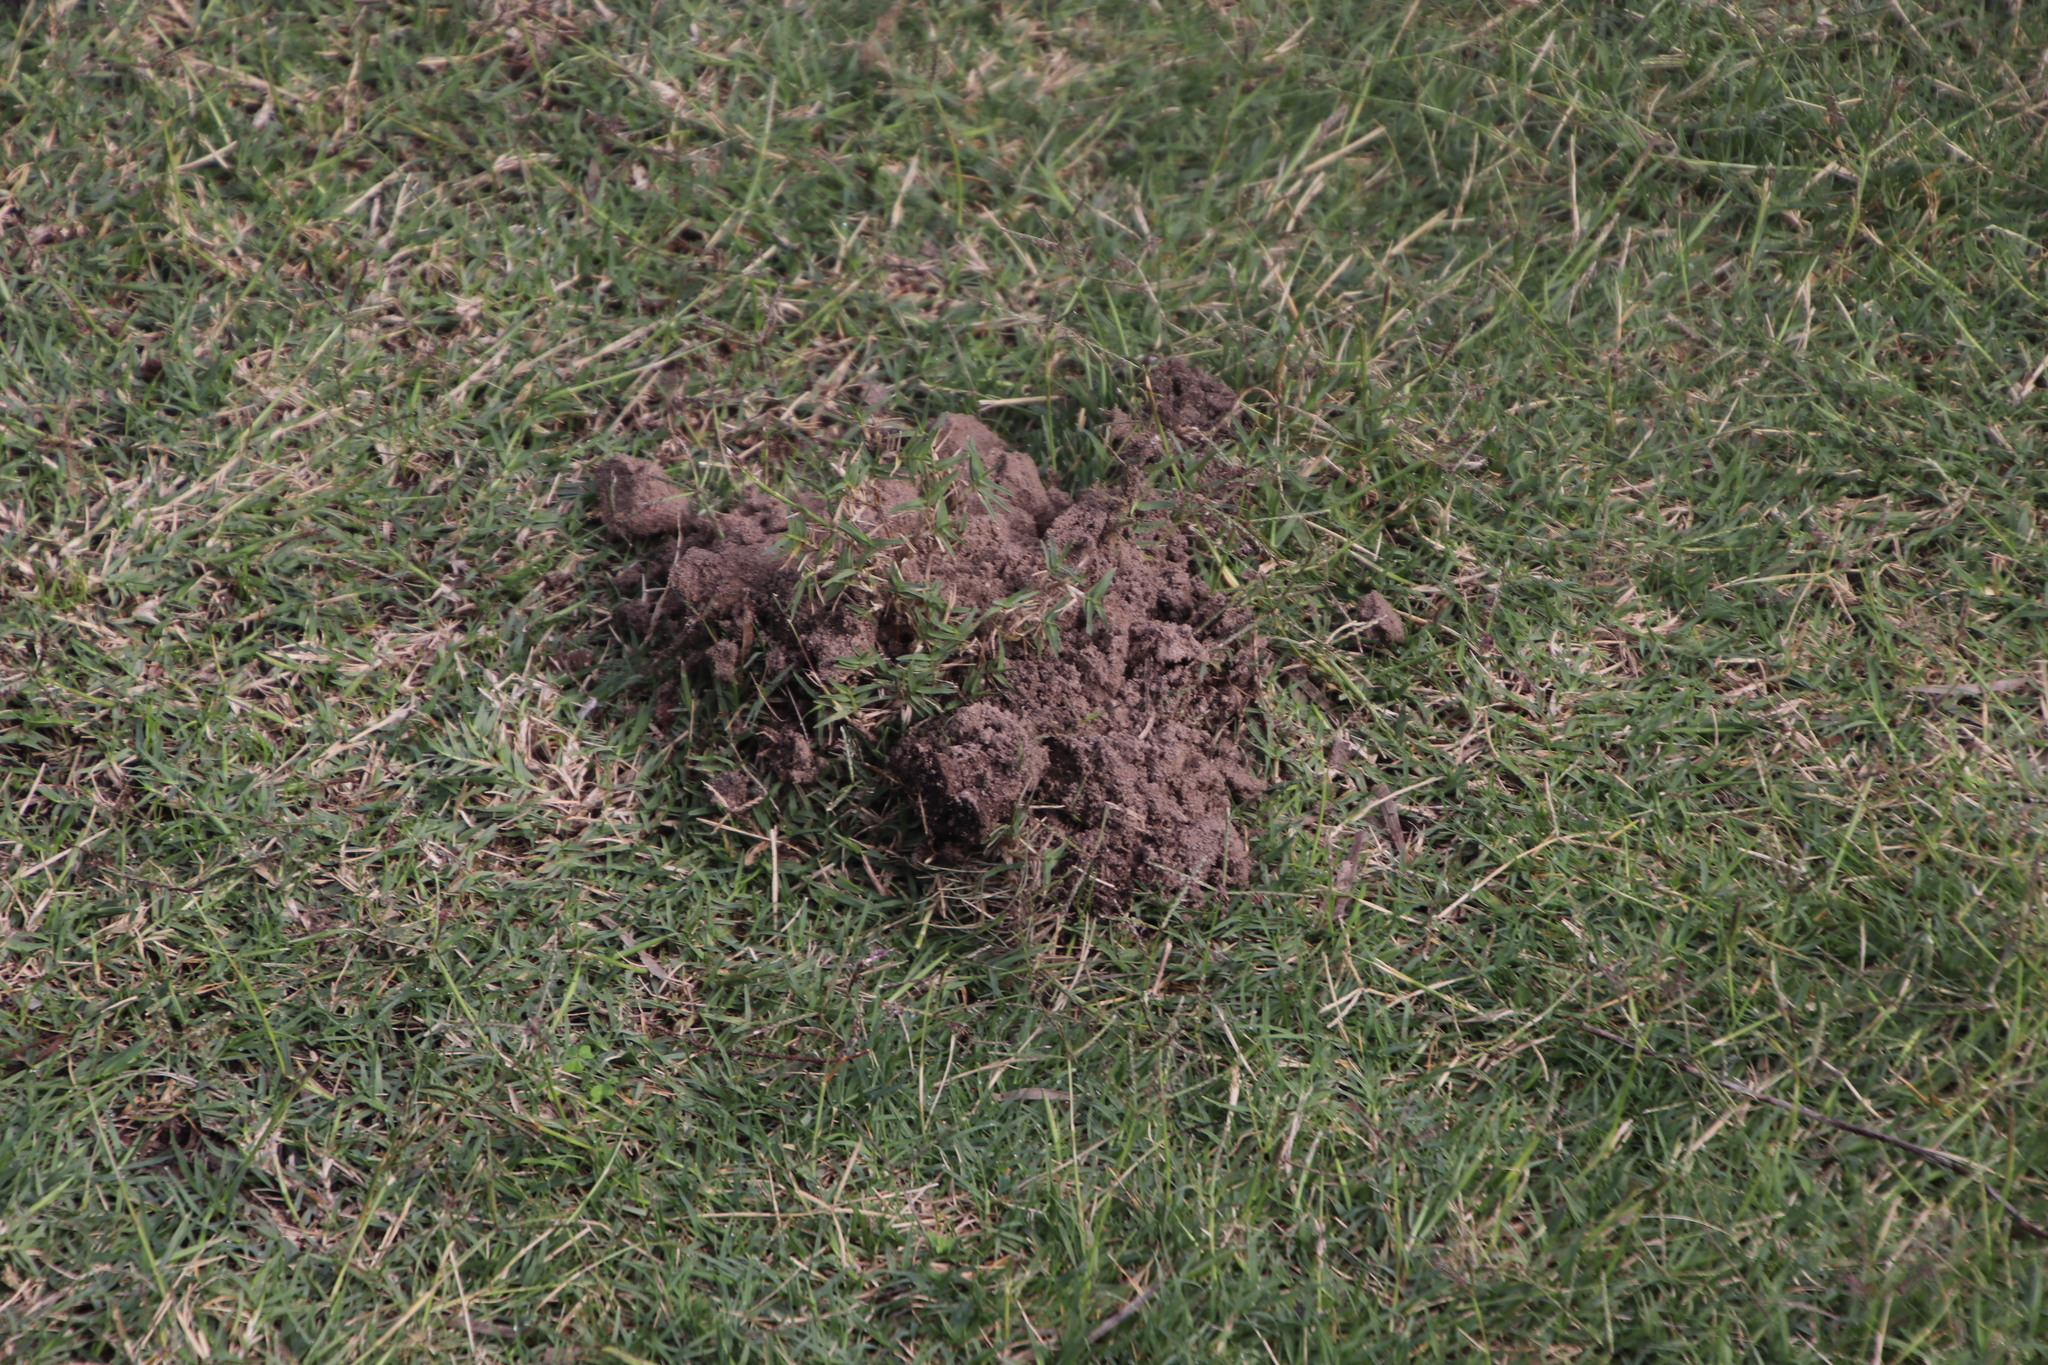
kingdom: Animalia
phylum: Chordata
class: Mammalia
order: Afrosoricida
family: Chrysochloridae
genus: Chrysochloris
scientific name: Chrysochloris asiatica
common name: Cape golden mole
